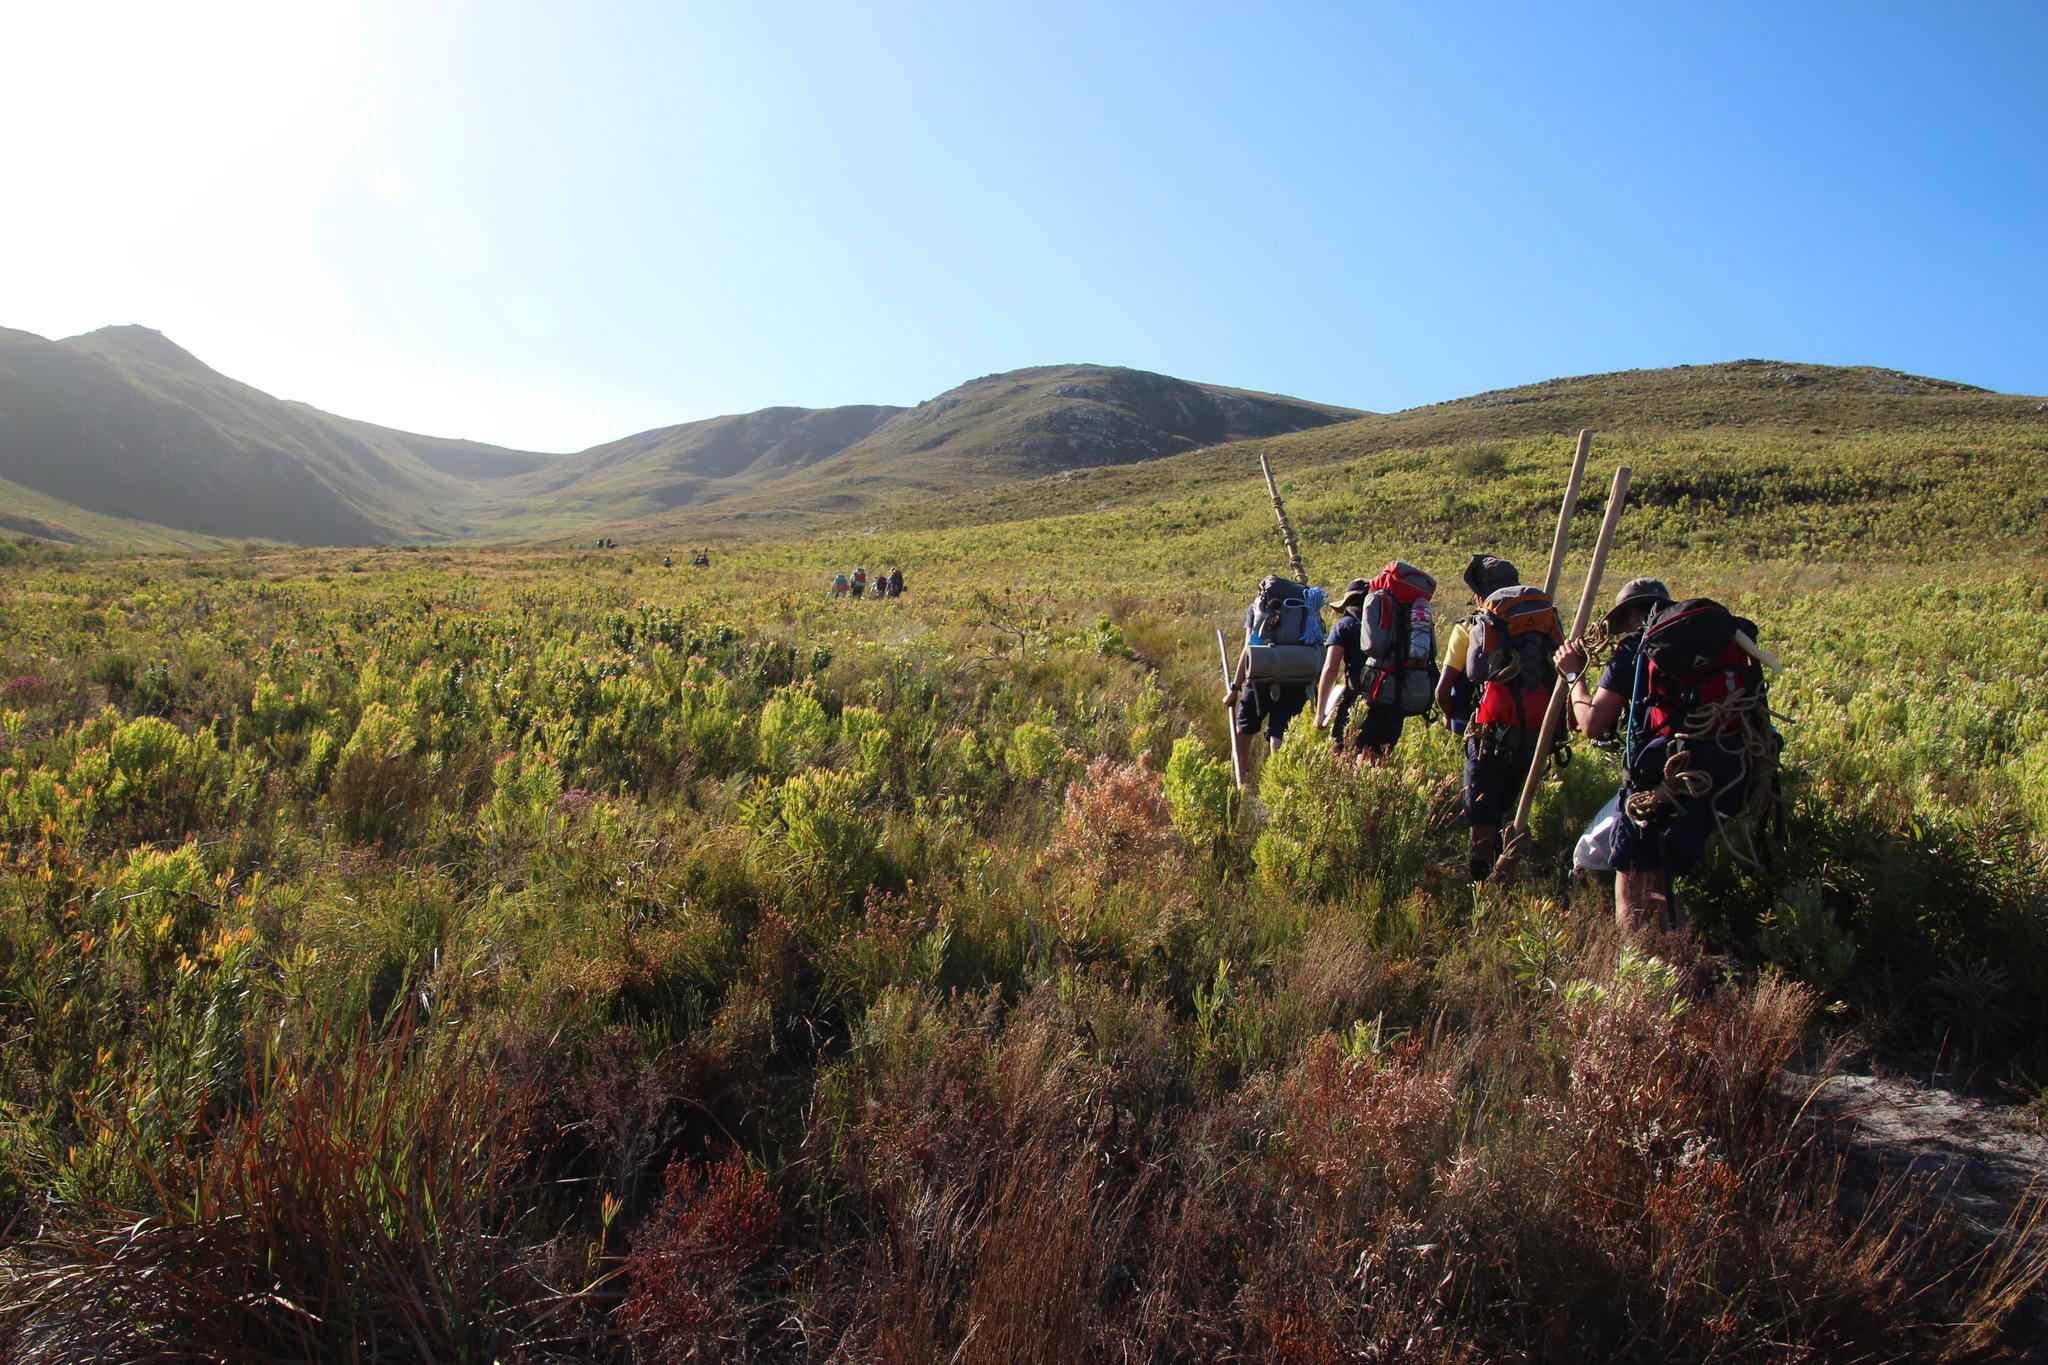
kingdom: Plantae
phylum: Tracheophyta
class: Magnoliopsida
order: Proteales
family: Proteaceae
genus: Leucadendron
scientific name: Leucadendron xanthoconus
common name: Sickle-leaf conebush
